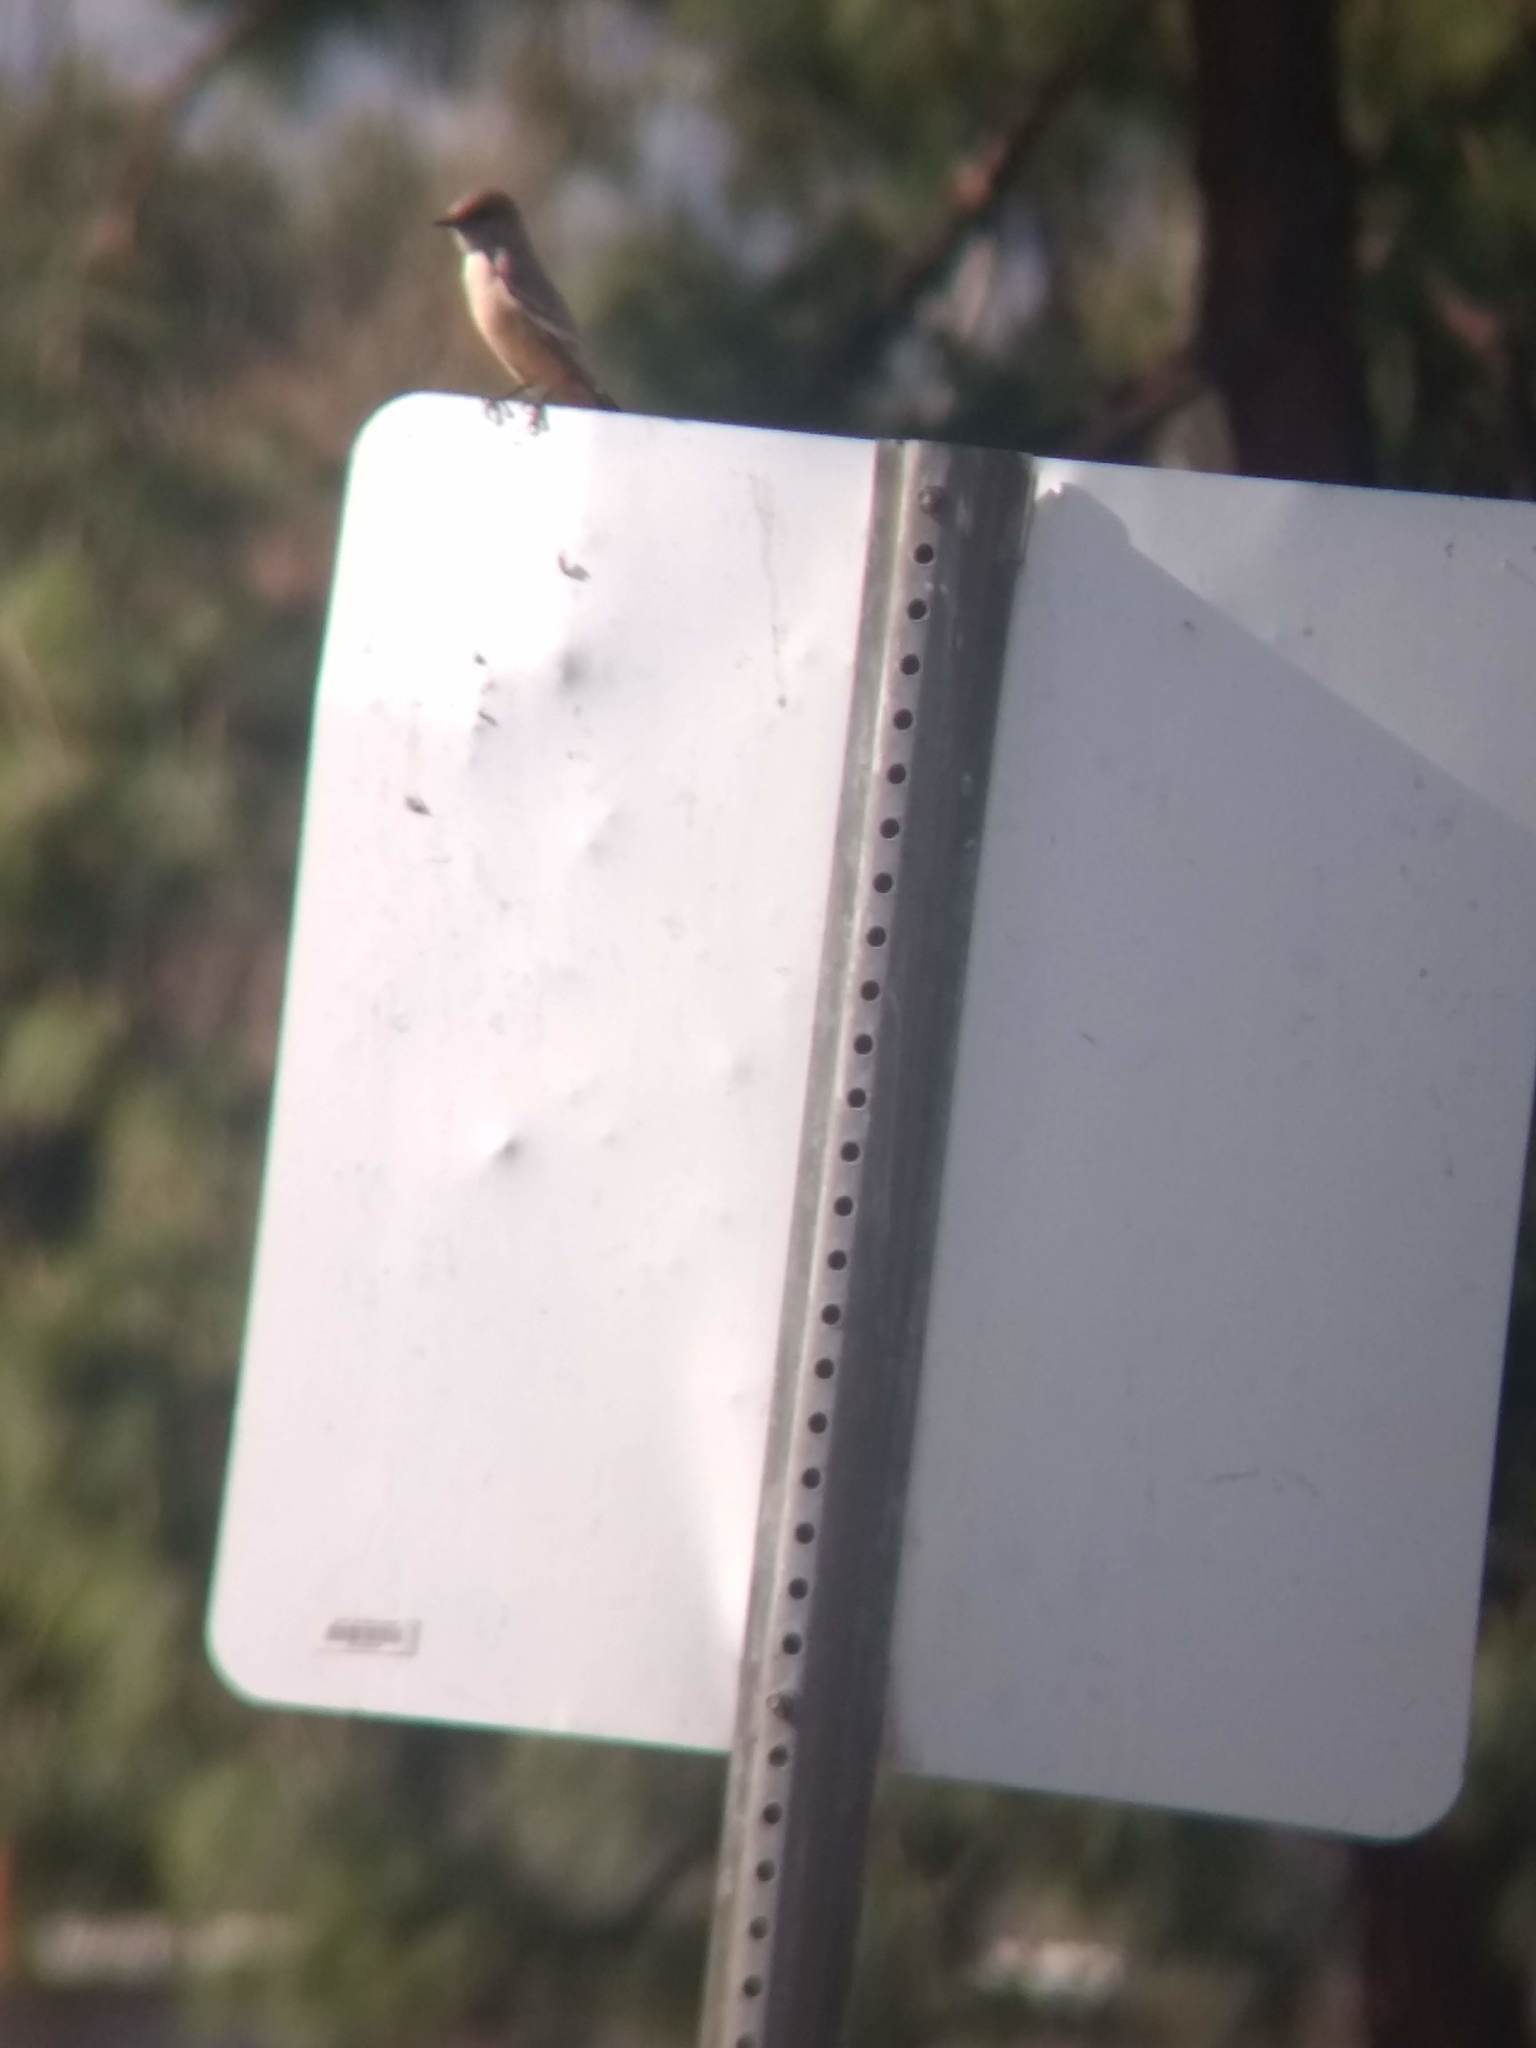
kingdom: Animalia
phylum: Chordata
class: Aves
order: Passeriformes
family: Tyrannidae
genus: Sayornis
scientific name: Sayornis saya
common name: Say's phoebe
